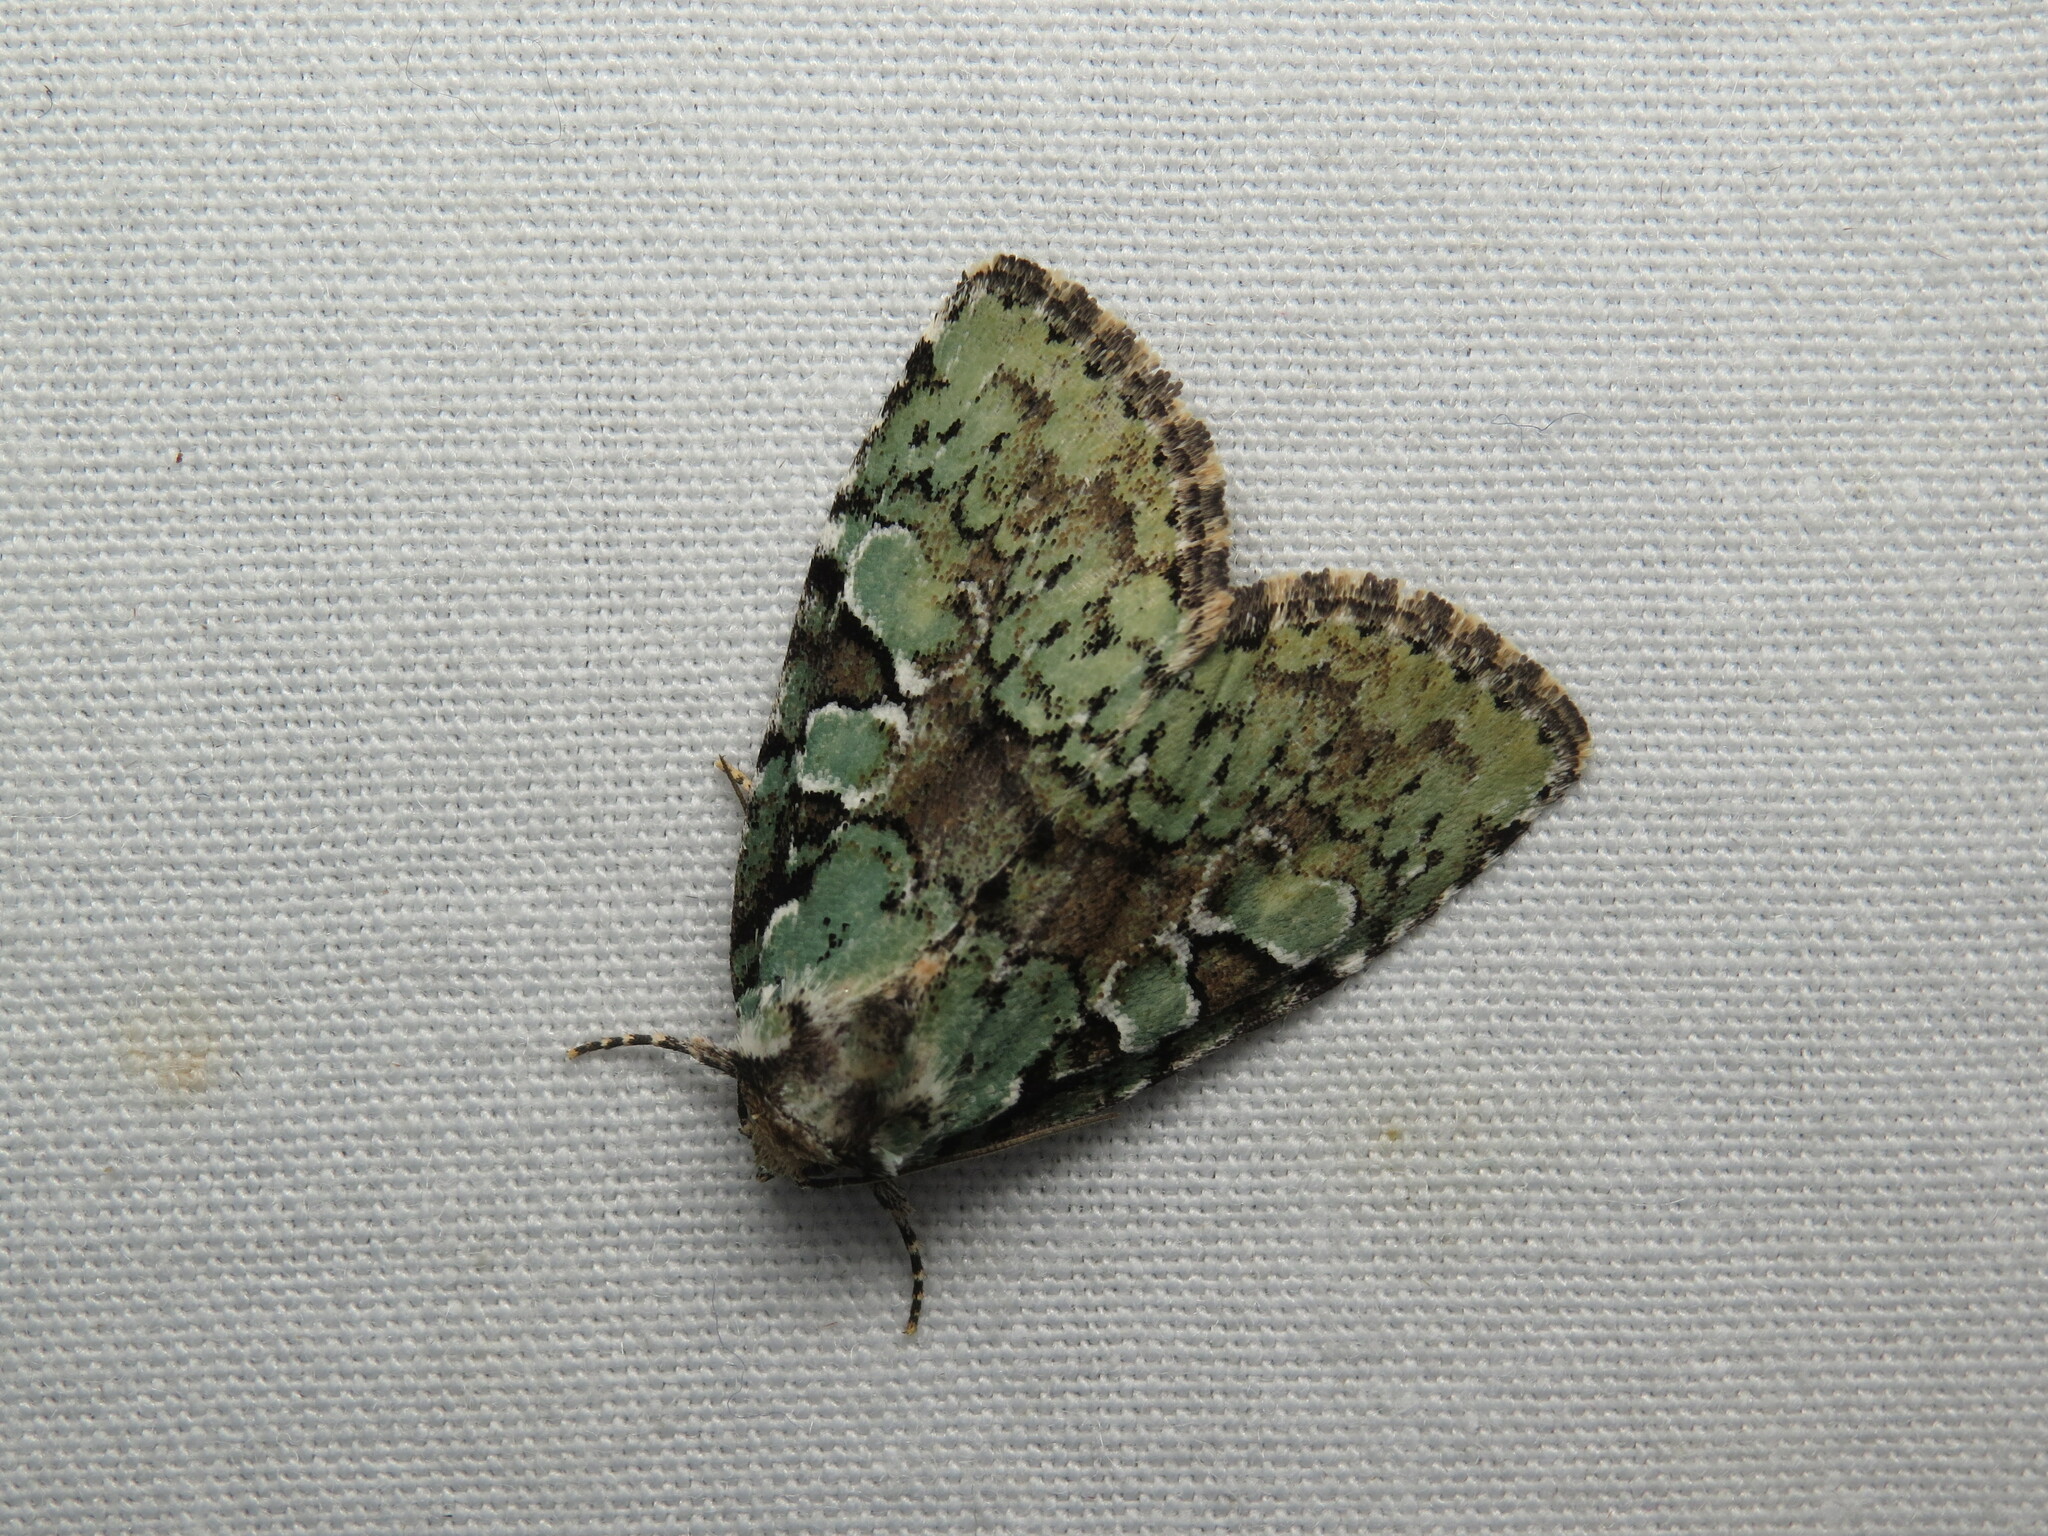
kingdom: Animalia
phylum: Arthropoda
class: Insecta
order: Lepidoptera
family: Noctuidae
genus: Leuconycta
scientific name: Leuconycta lepidula
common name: Marbled-green leuconycta moth
